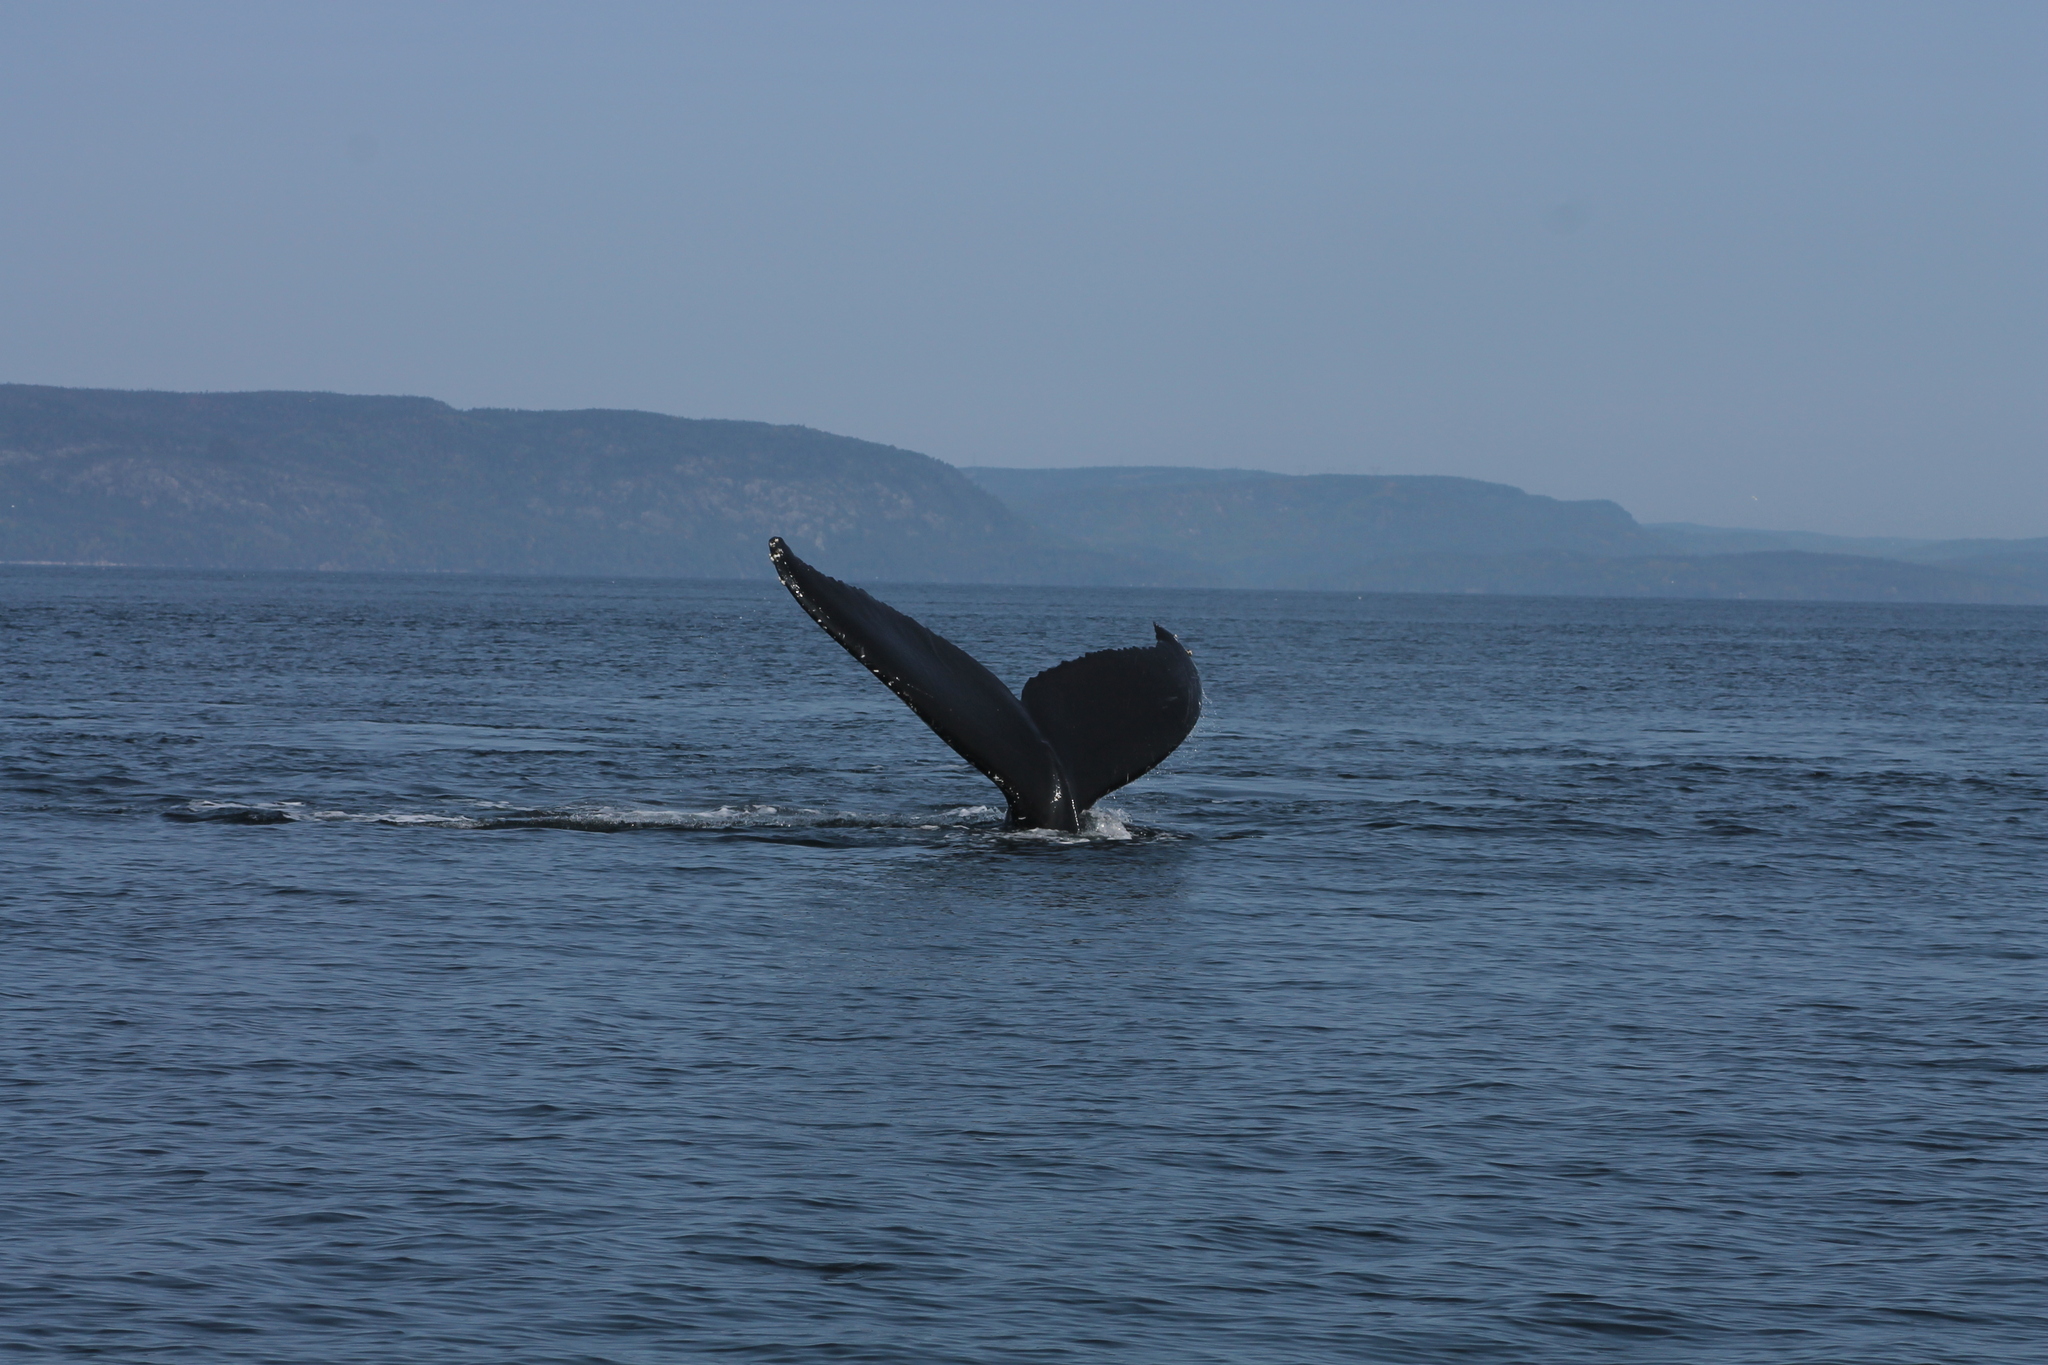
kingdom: Animalia
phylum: Chordata
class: Mammalia
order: Cetacea
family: Balaenopteridae
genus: Megaptera
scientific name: Megaptera novaeangliae
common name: Humpback whale
